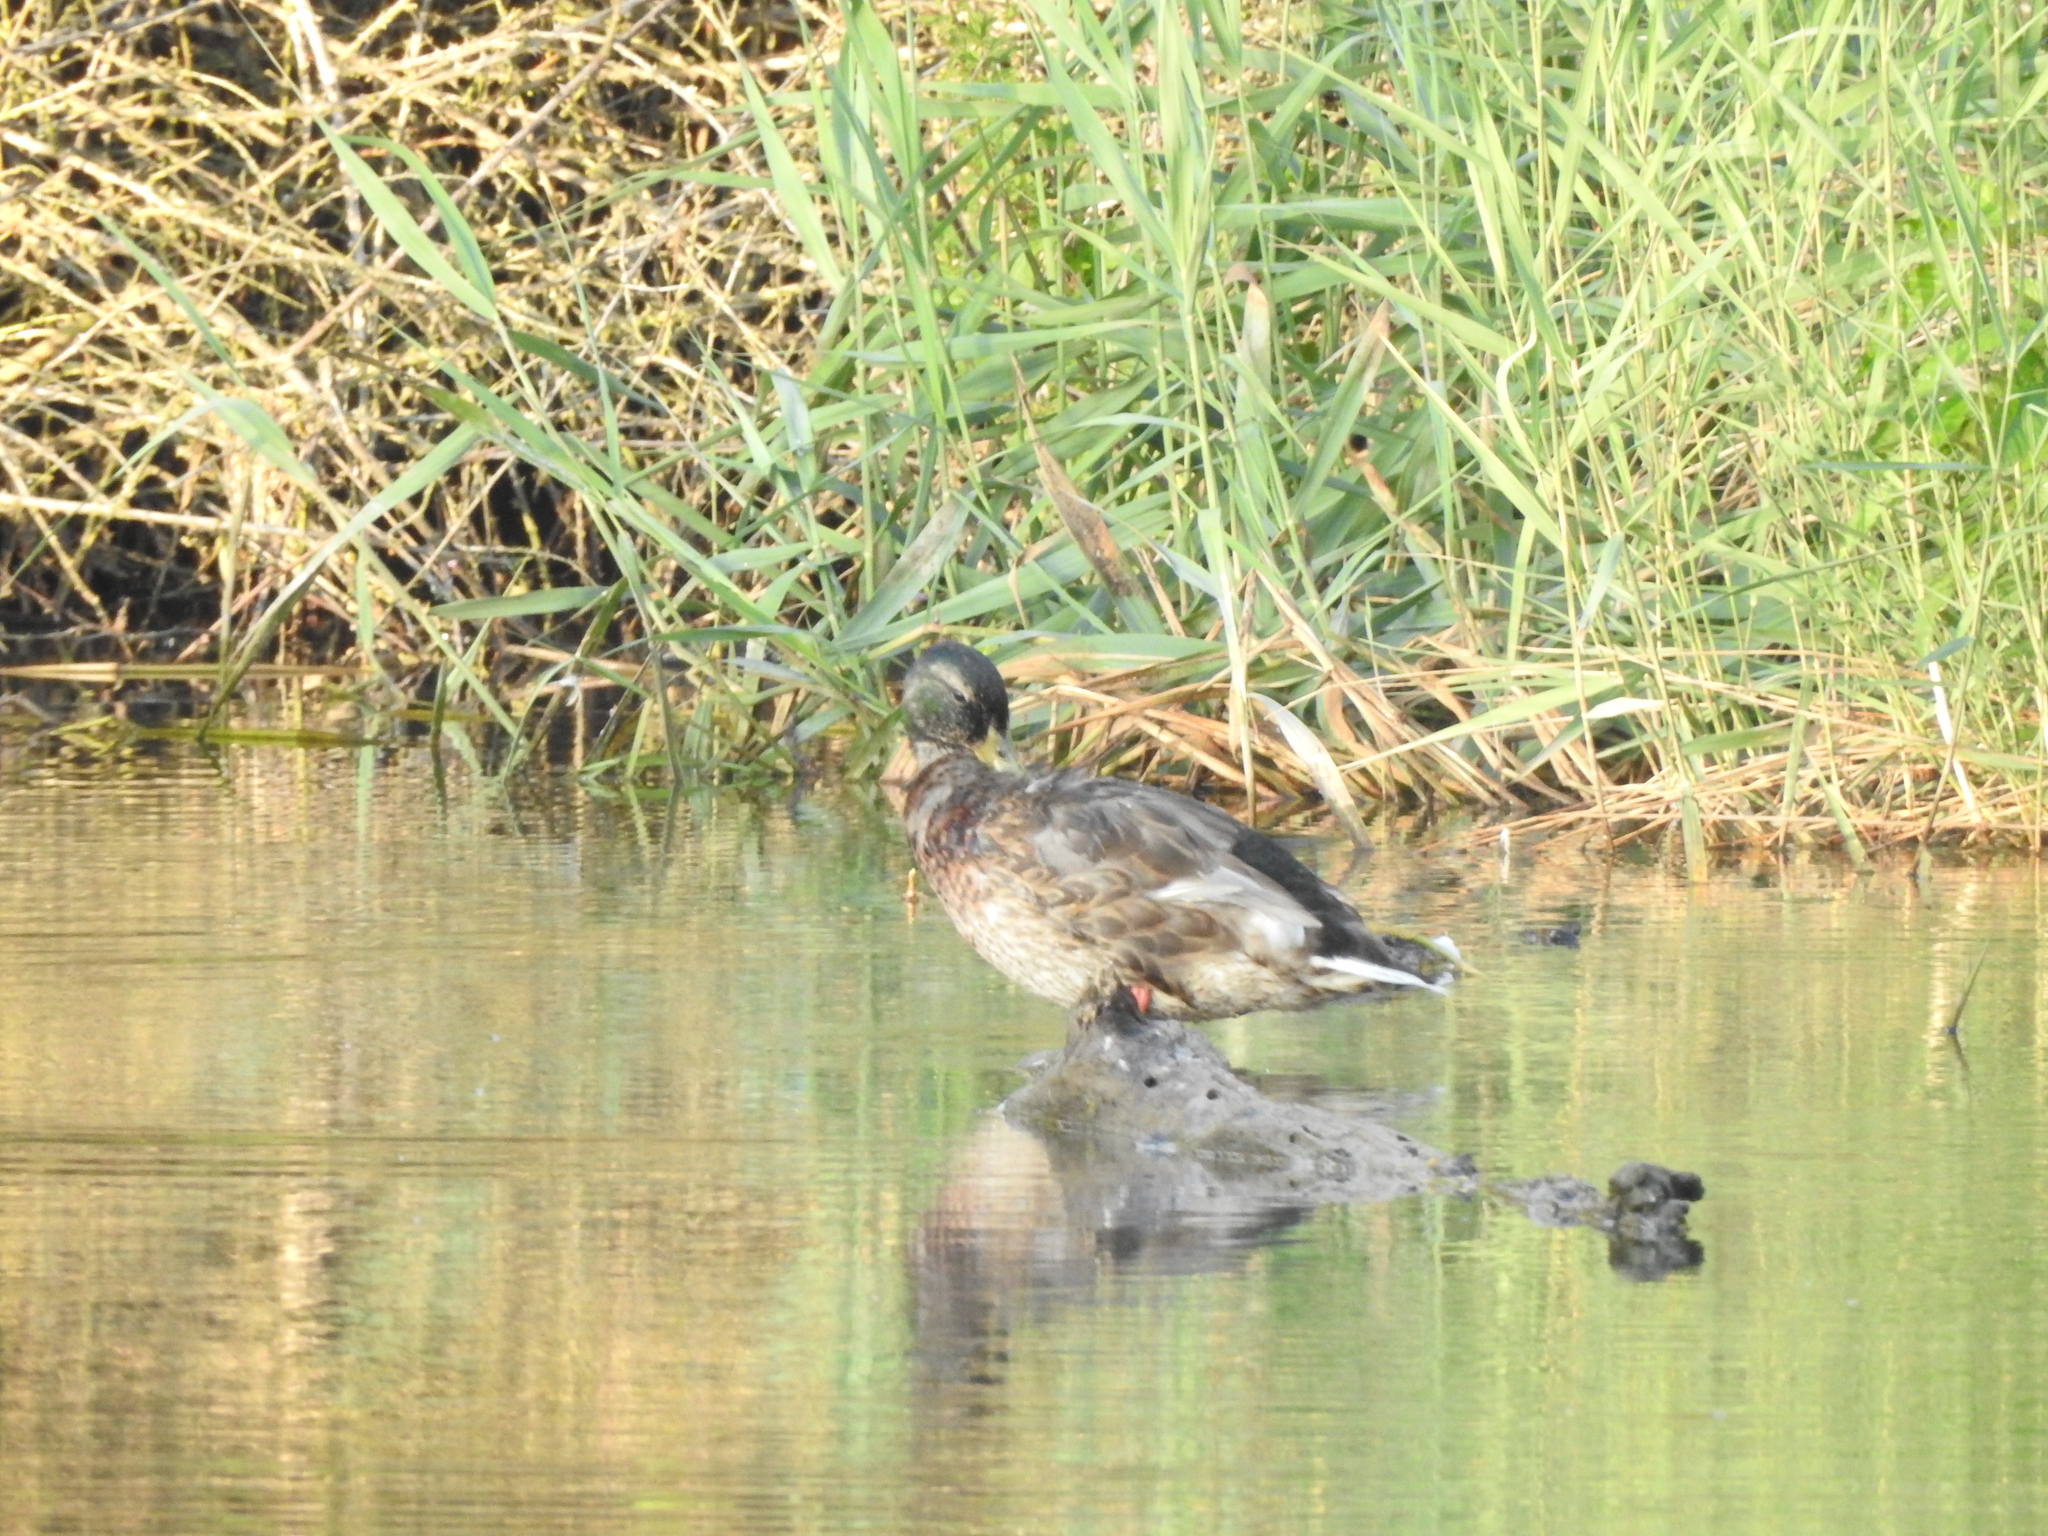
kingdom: Animalia
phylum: Chordata
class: Aves
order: Anseriformes
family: Anatidae
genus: Anas
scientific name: Anas platyrhynchos
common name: Mallard
